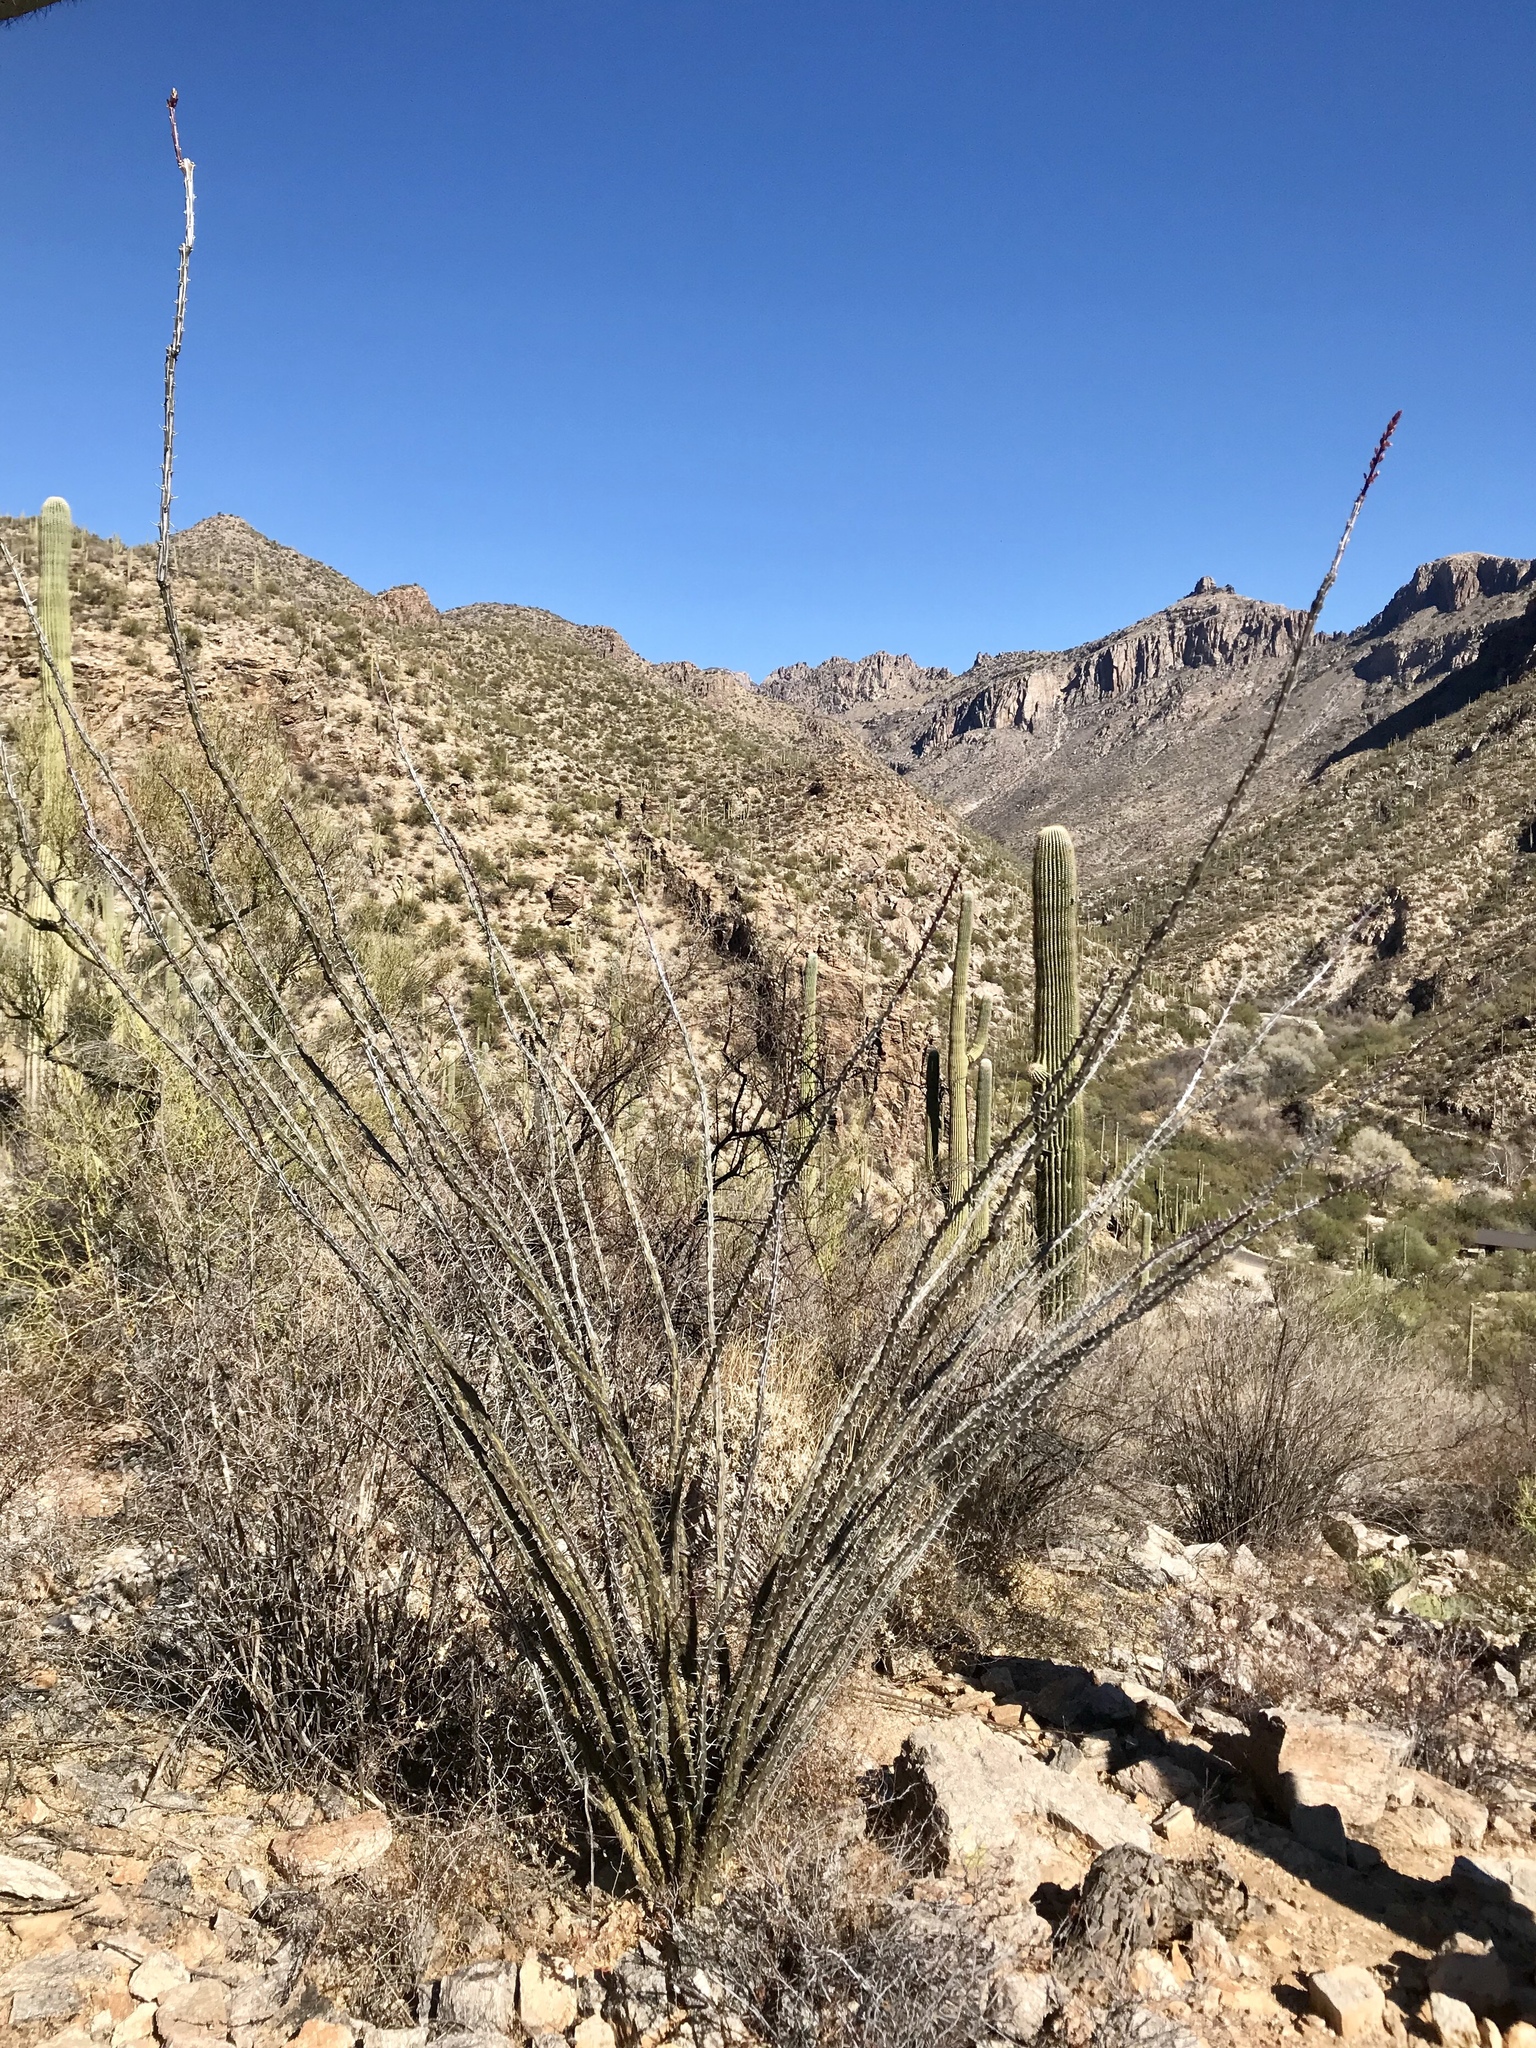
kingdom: Plantae
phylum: Tracheophyta
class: Magnoliopsida
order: Ericales
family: Fouquieriaceae
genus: Fouquieria
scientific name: Fouquieria splendens
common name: Vine-cactus
